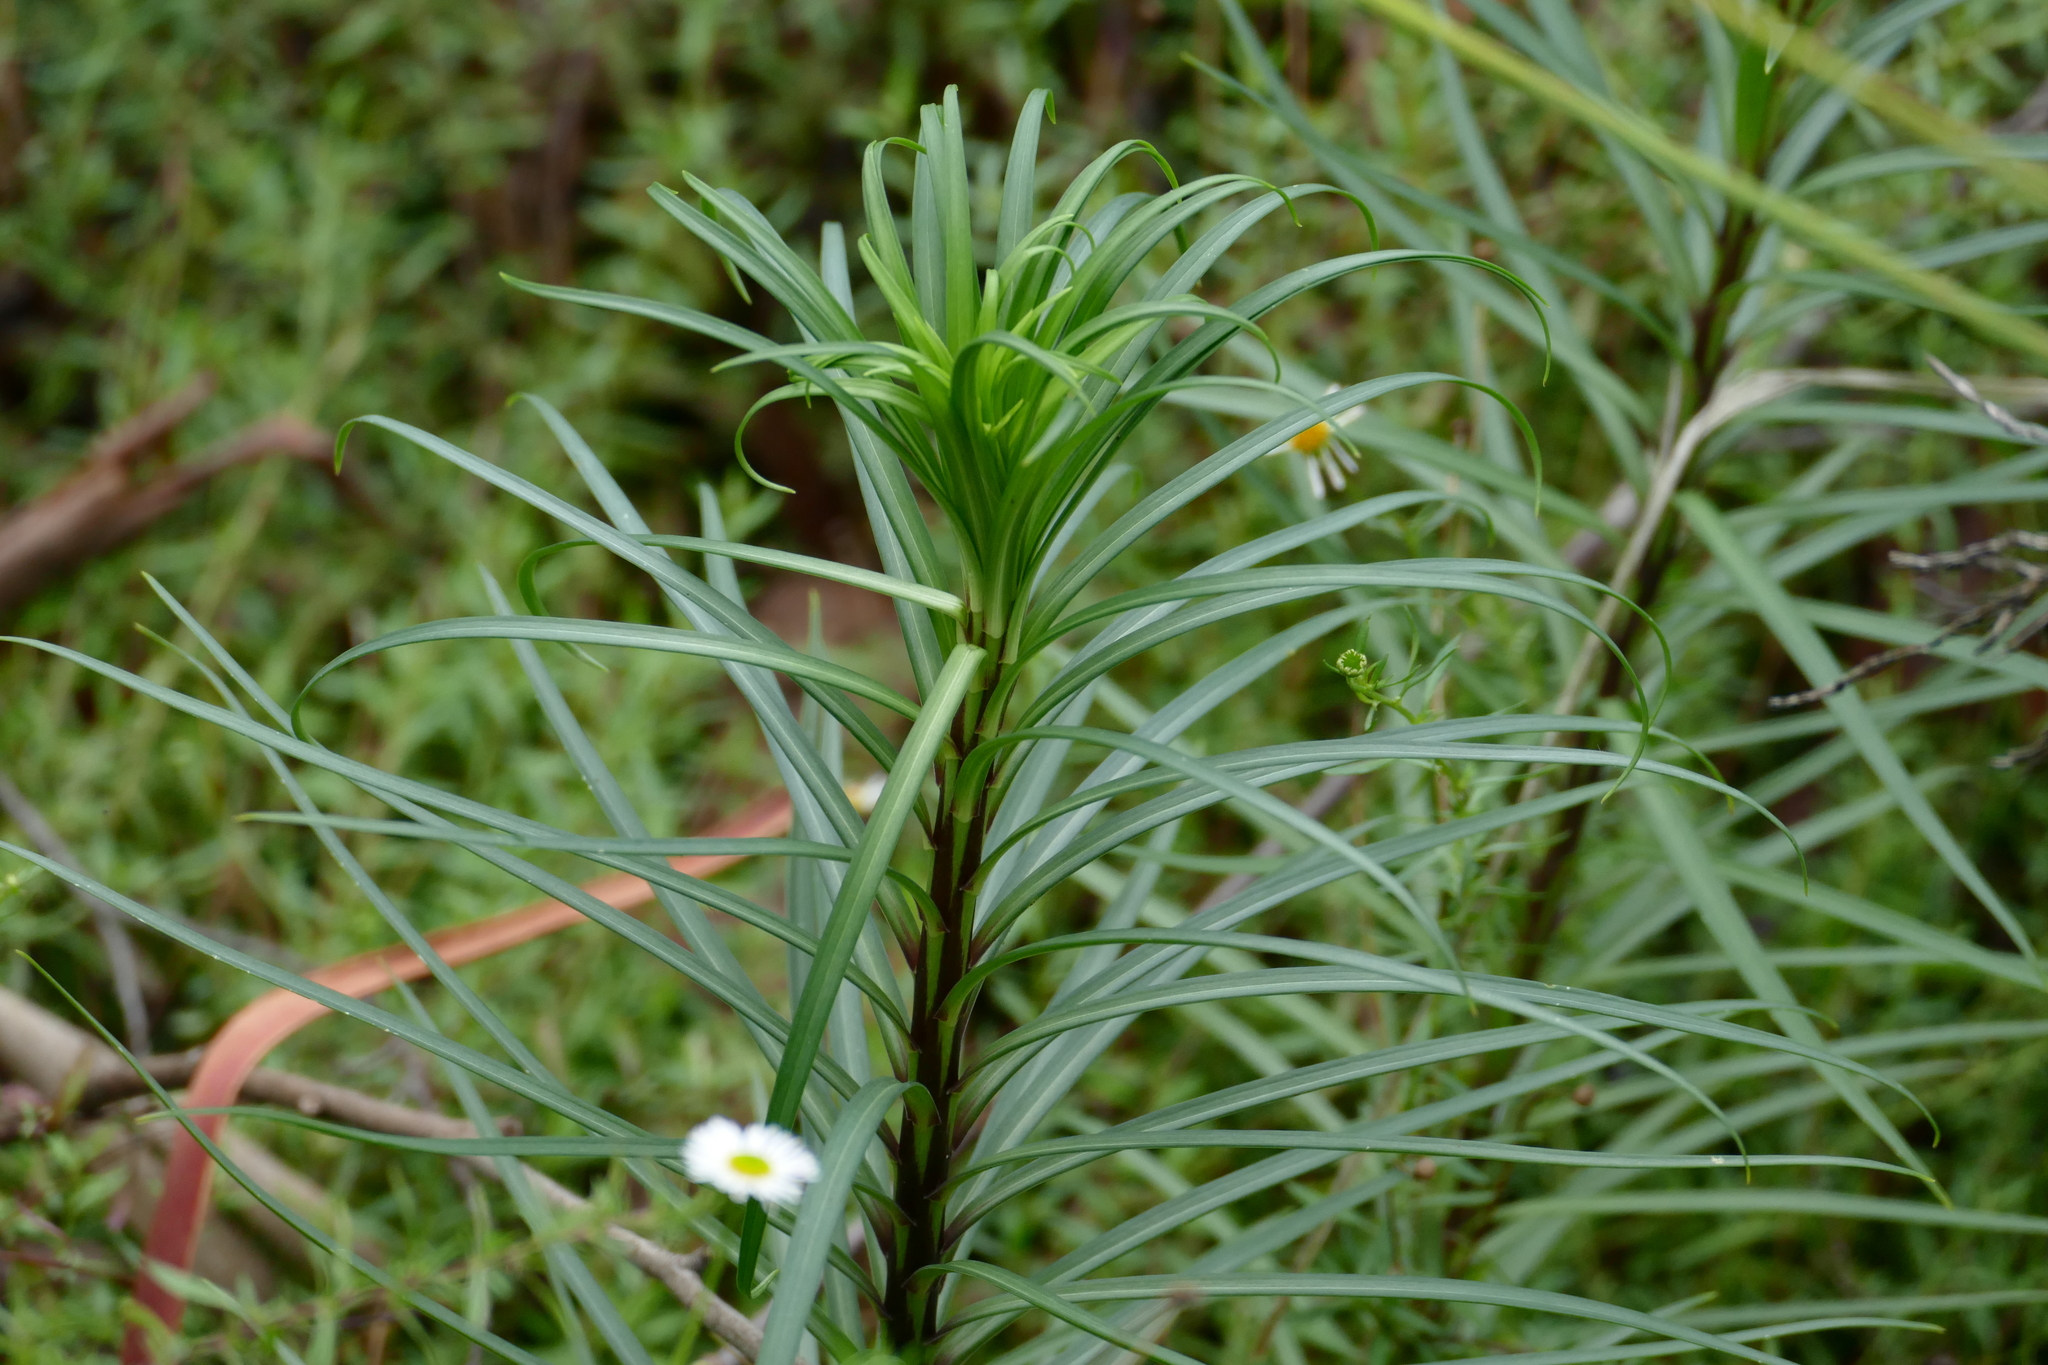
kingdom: Plantae
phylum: Tracheophyta
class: Liliopsida
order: Liliales
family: Liliaceae
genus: Lilium
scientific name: Lilium formosanum
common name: Formosa lily
